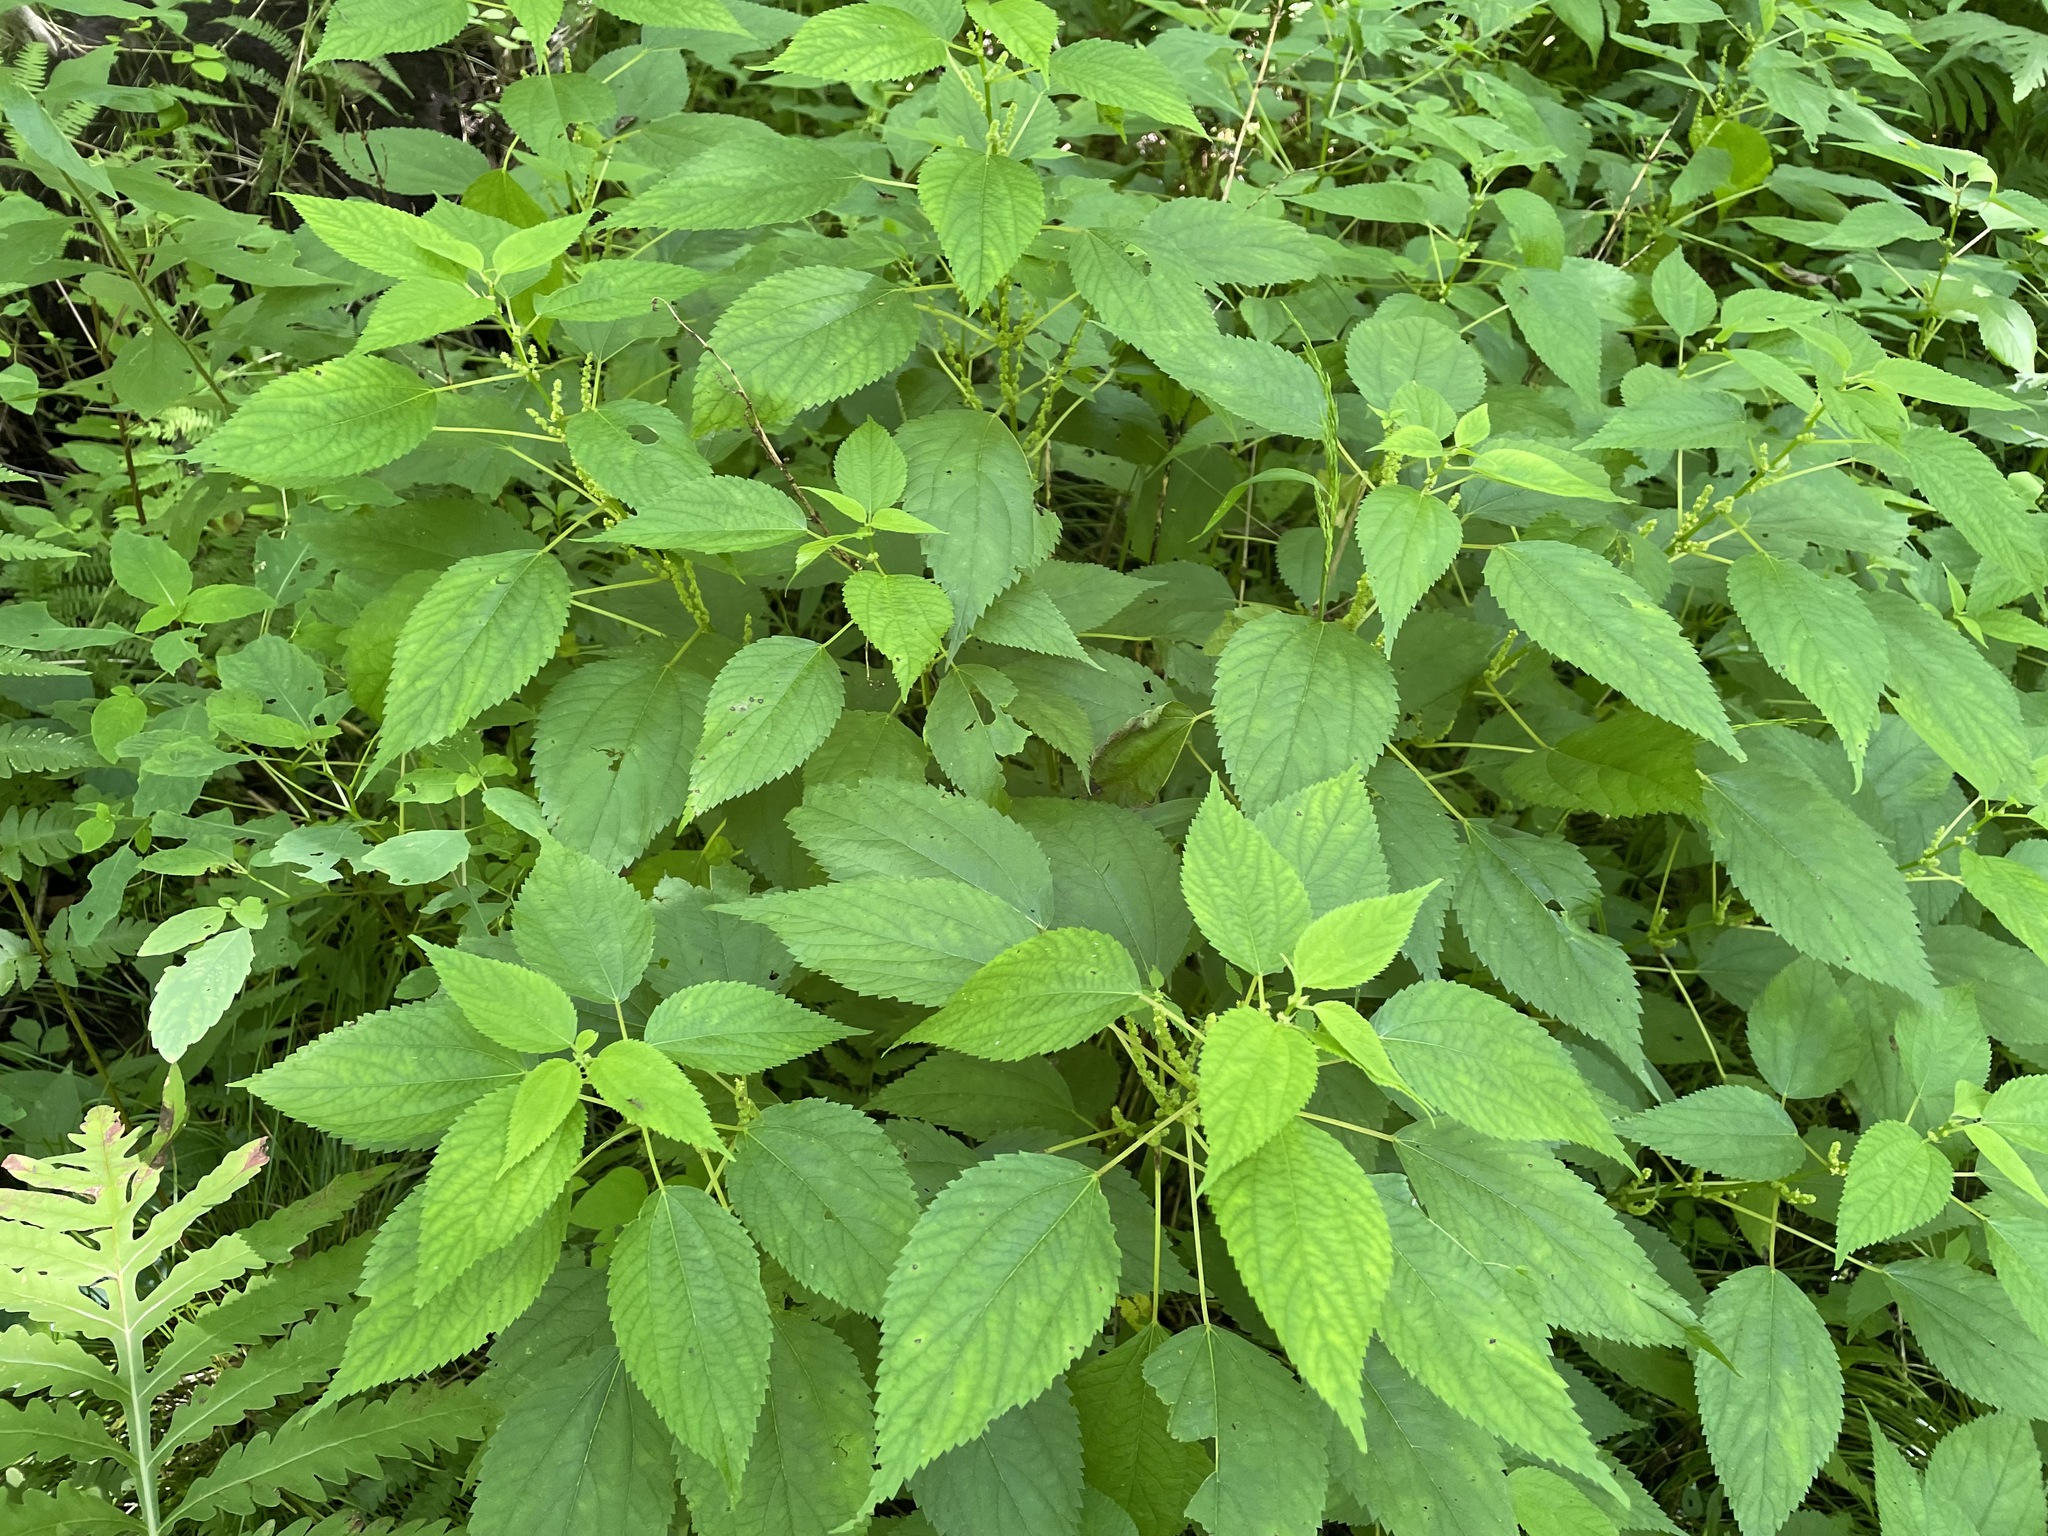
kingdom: Plantae
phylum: Tracheophyta
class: Magnoliopsida
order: Rosales
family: Urticaceae
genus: Laportea
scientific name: Laportea canadensis
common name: Canada nettle
